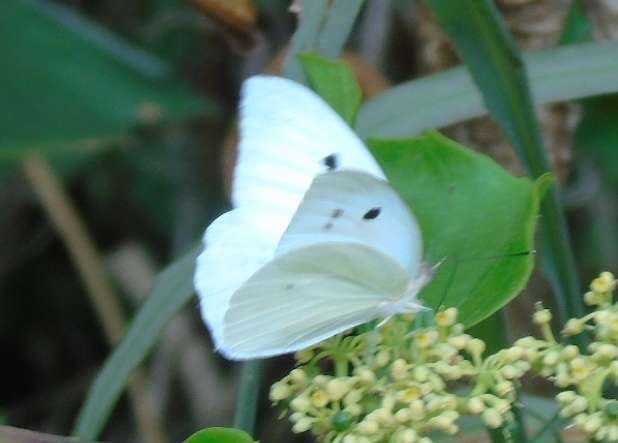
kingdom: Animalia
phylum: Arthropoda
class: Insecta
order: Lepidoptera
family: Pieridae
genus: Ganyra
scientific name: Ganyra josephina
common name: Giant white
